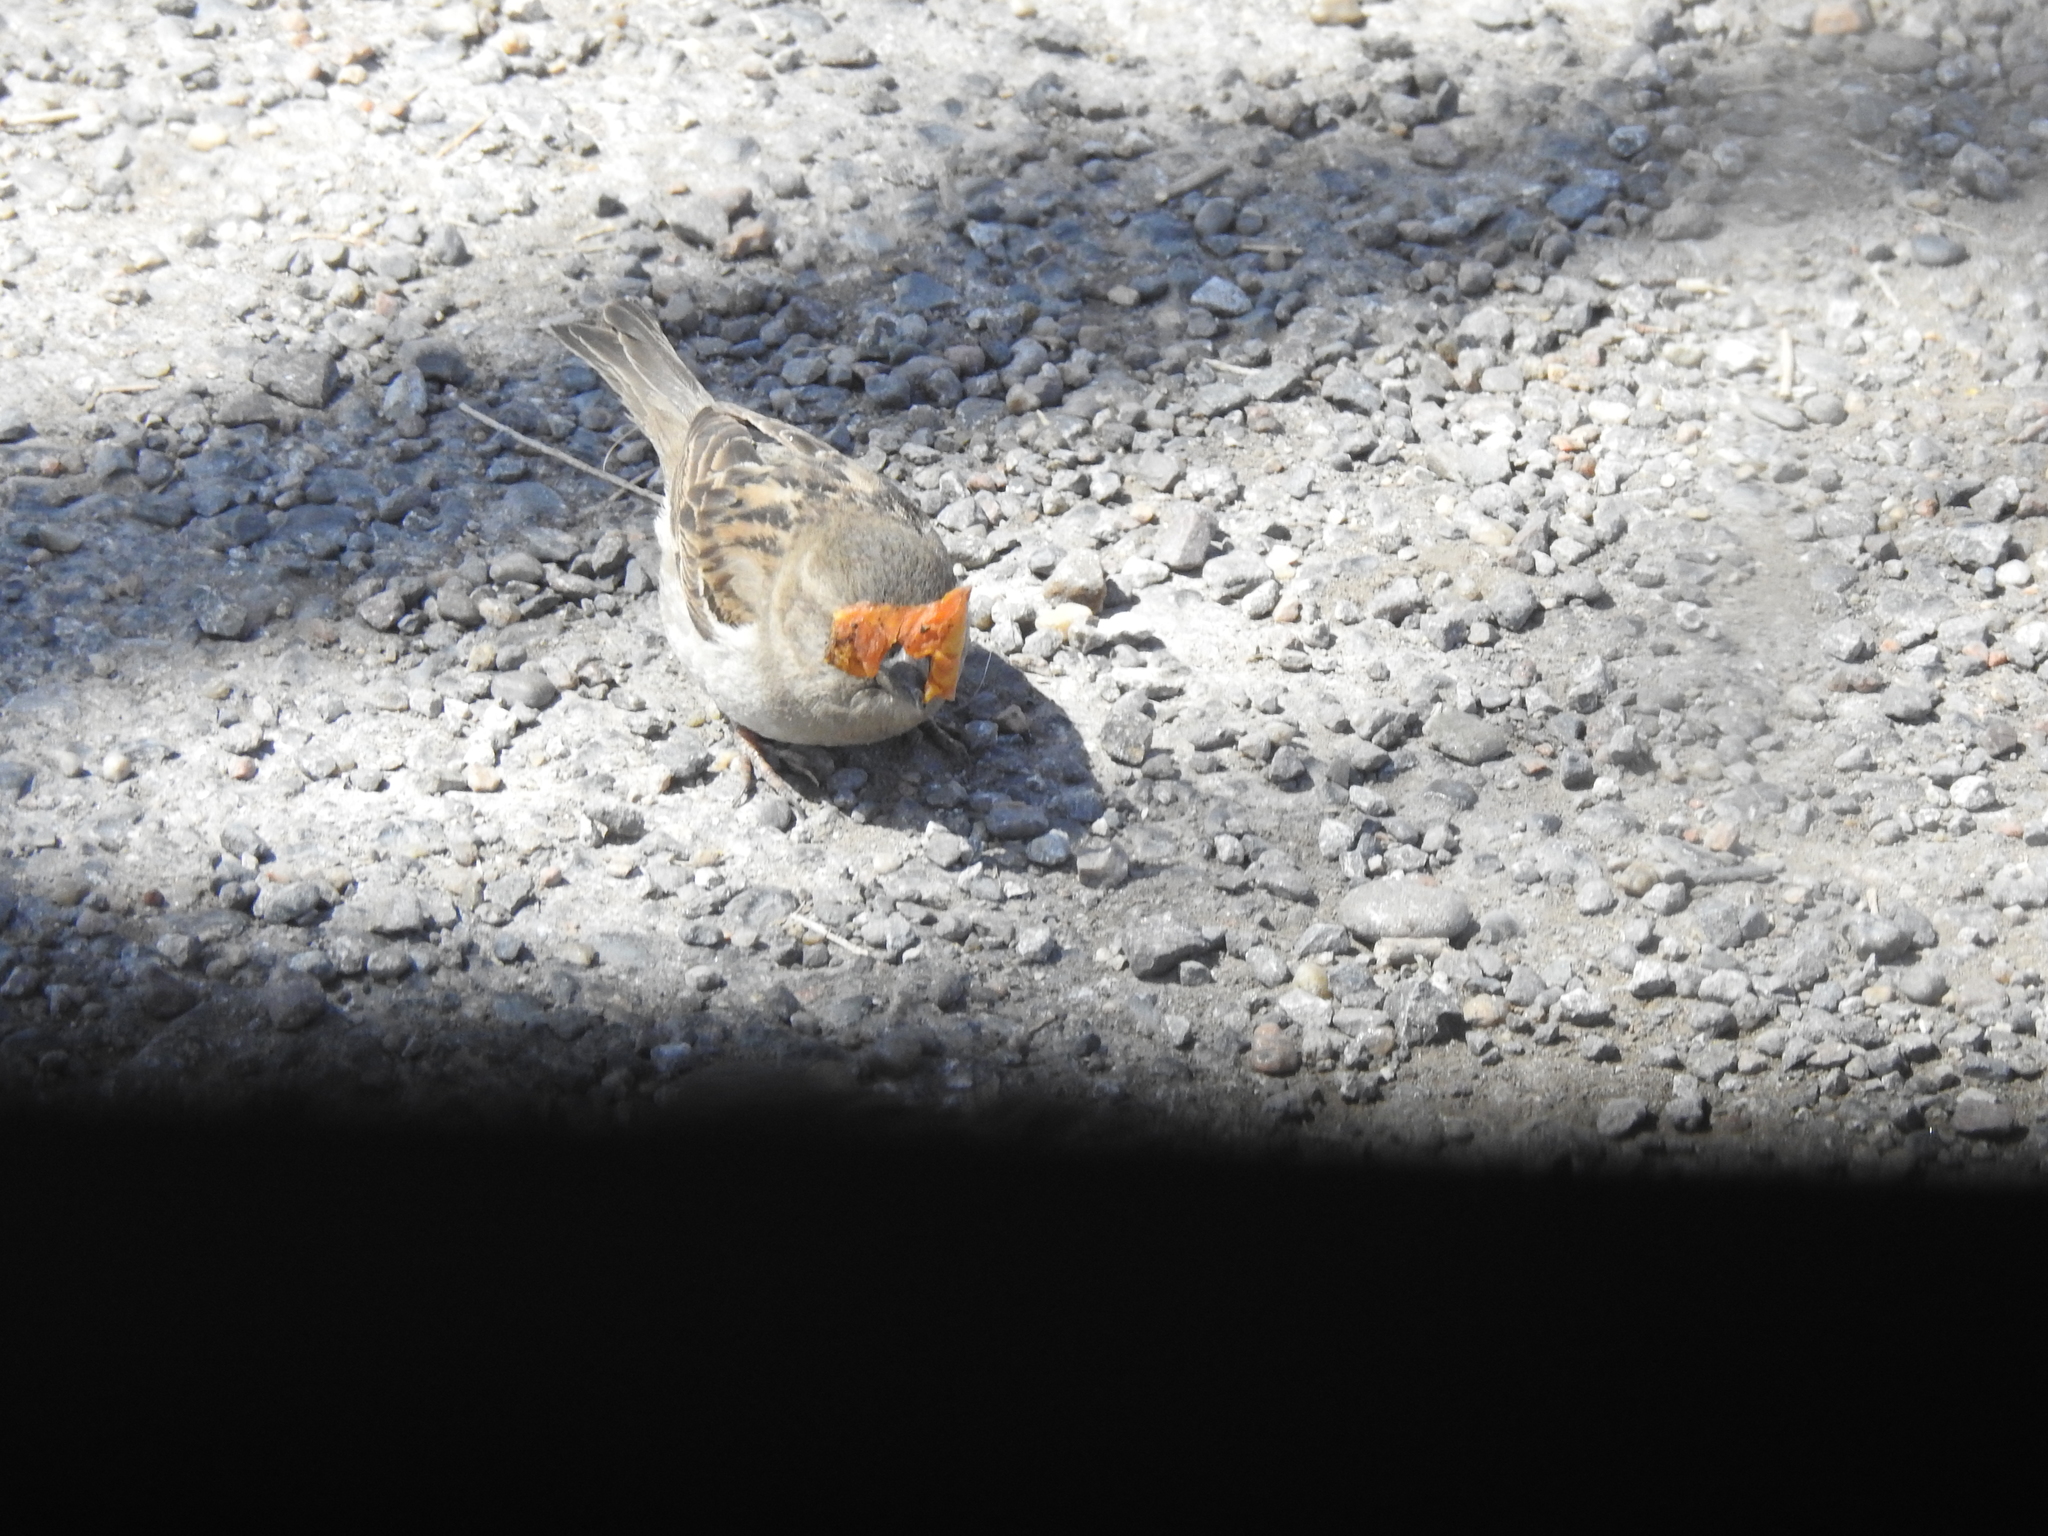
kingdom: Animalia
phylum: Chordata
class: Aves
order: Passeriformes
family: Passeridae
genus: Passer
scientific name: Passer domesticus
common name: House sparrow
